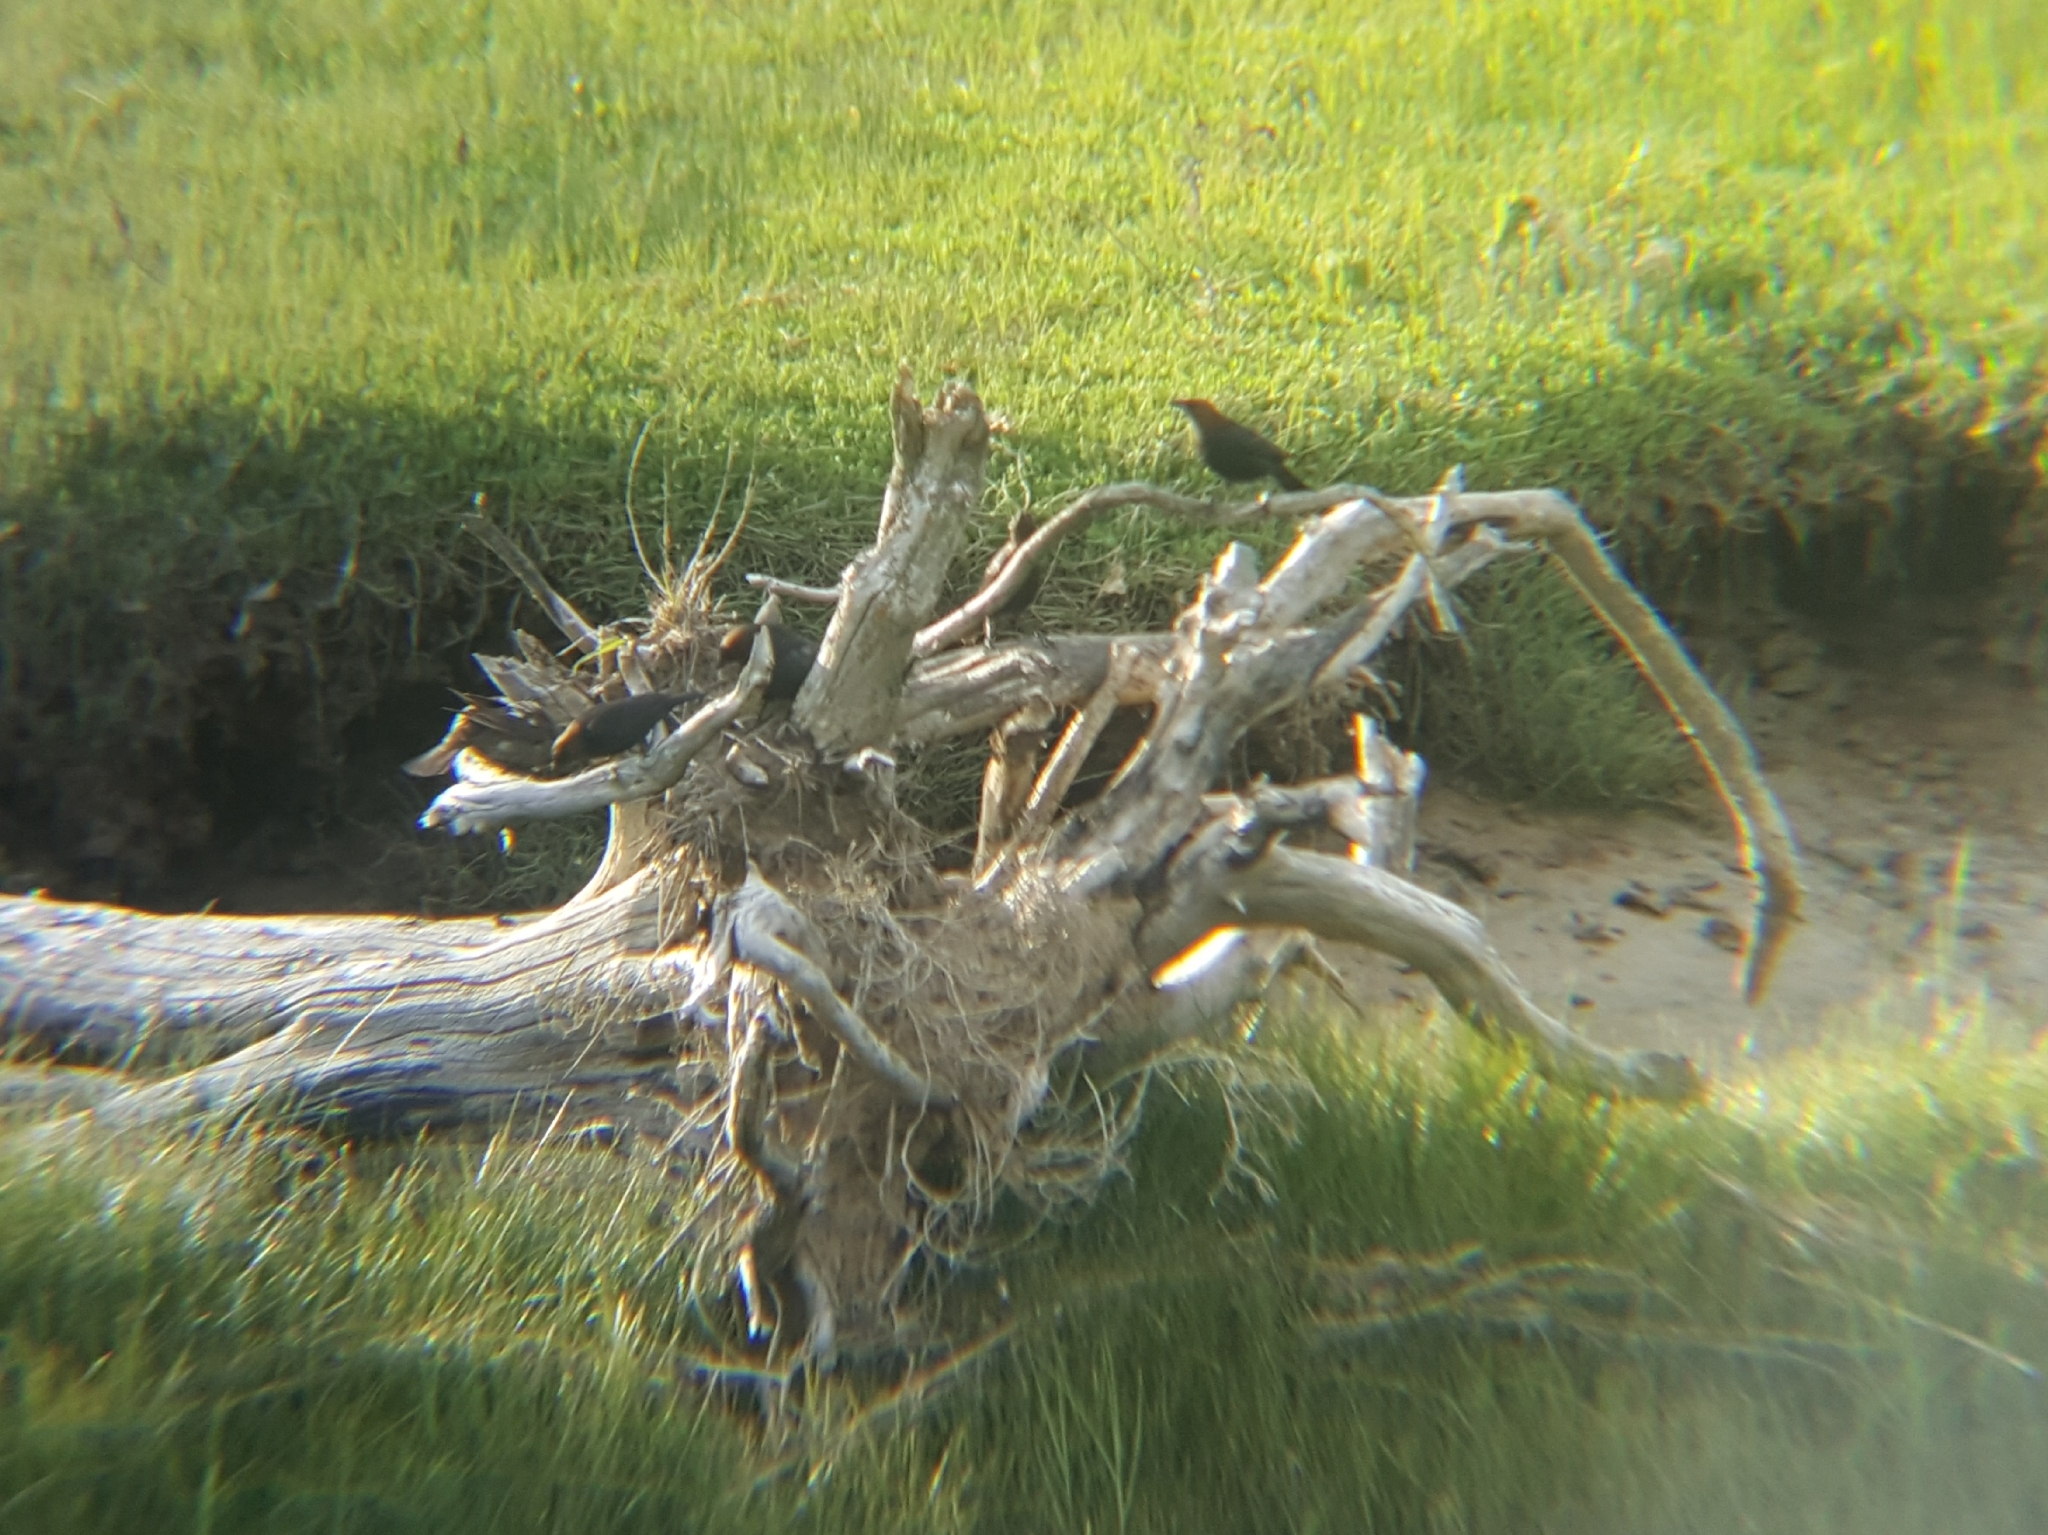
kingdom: Animalia
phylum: Chordata
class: Aves
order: Passeriformes
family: Icteridae
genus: Molothrus
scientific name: Molothrus ater
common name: Brown-headed cowbird
